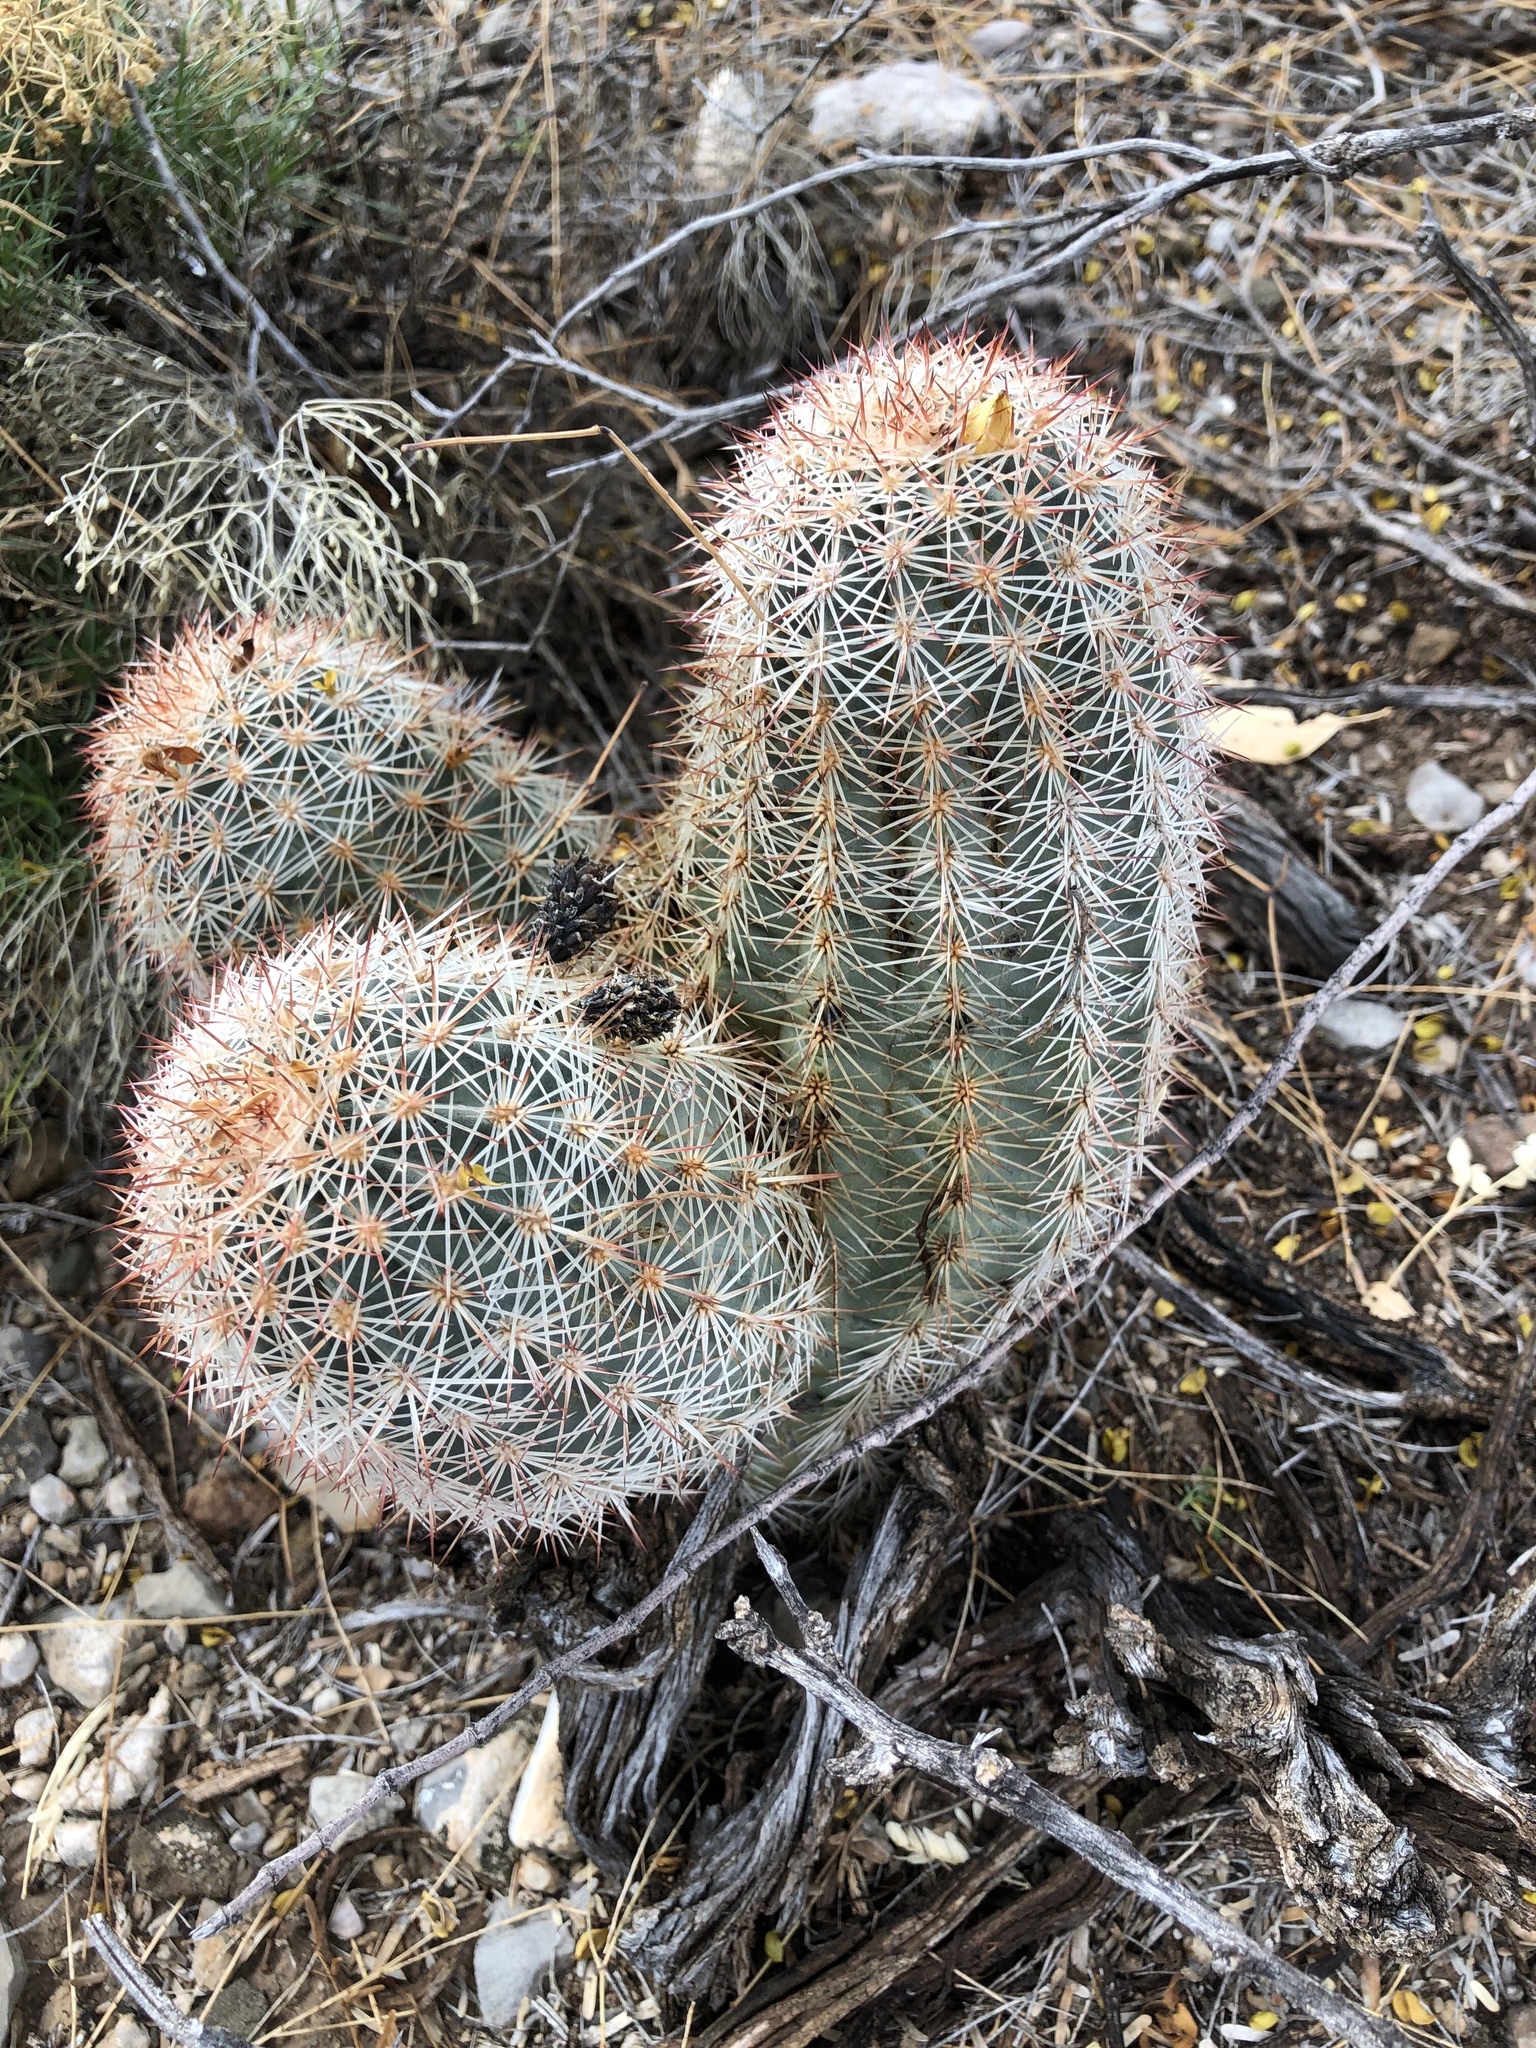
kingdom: Plantae
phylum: Tracheophyta
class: Magnoliopsida
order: Caryophyllales
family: Cactaceae
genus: Echinocereus
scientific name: Echinocereus dasyacanthus
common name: Spiny hedgehog cactus
